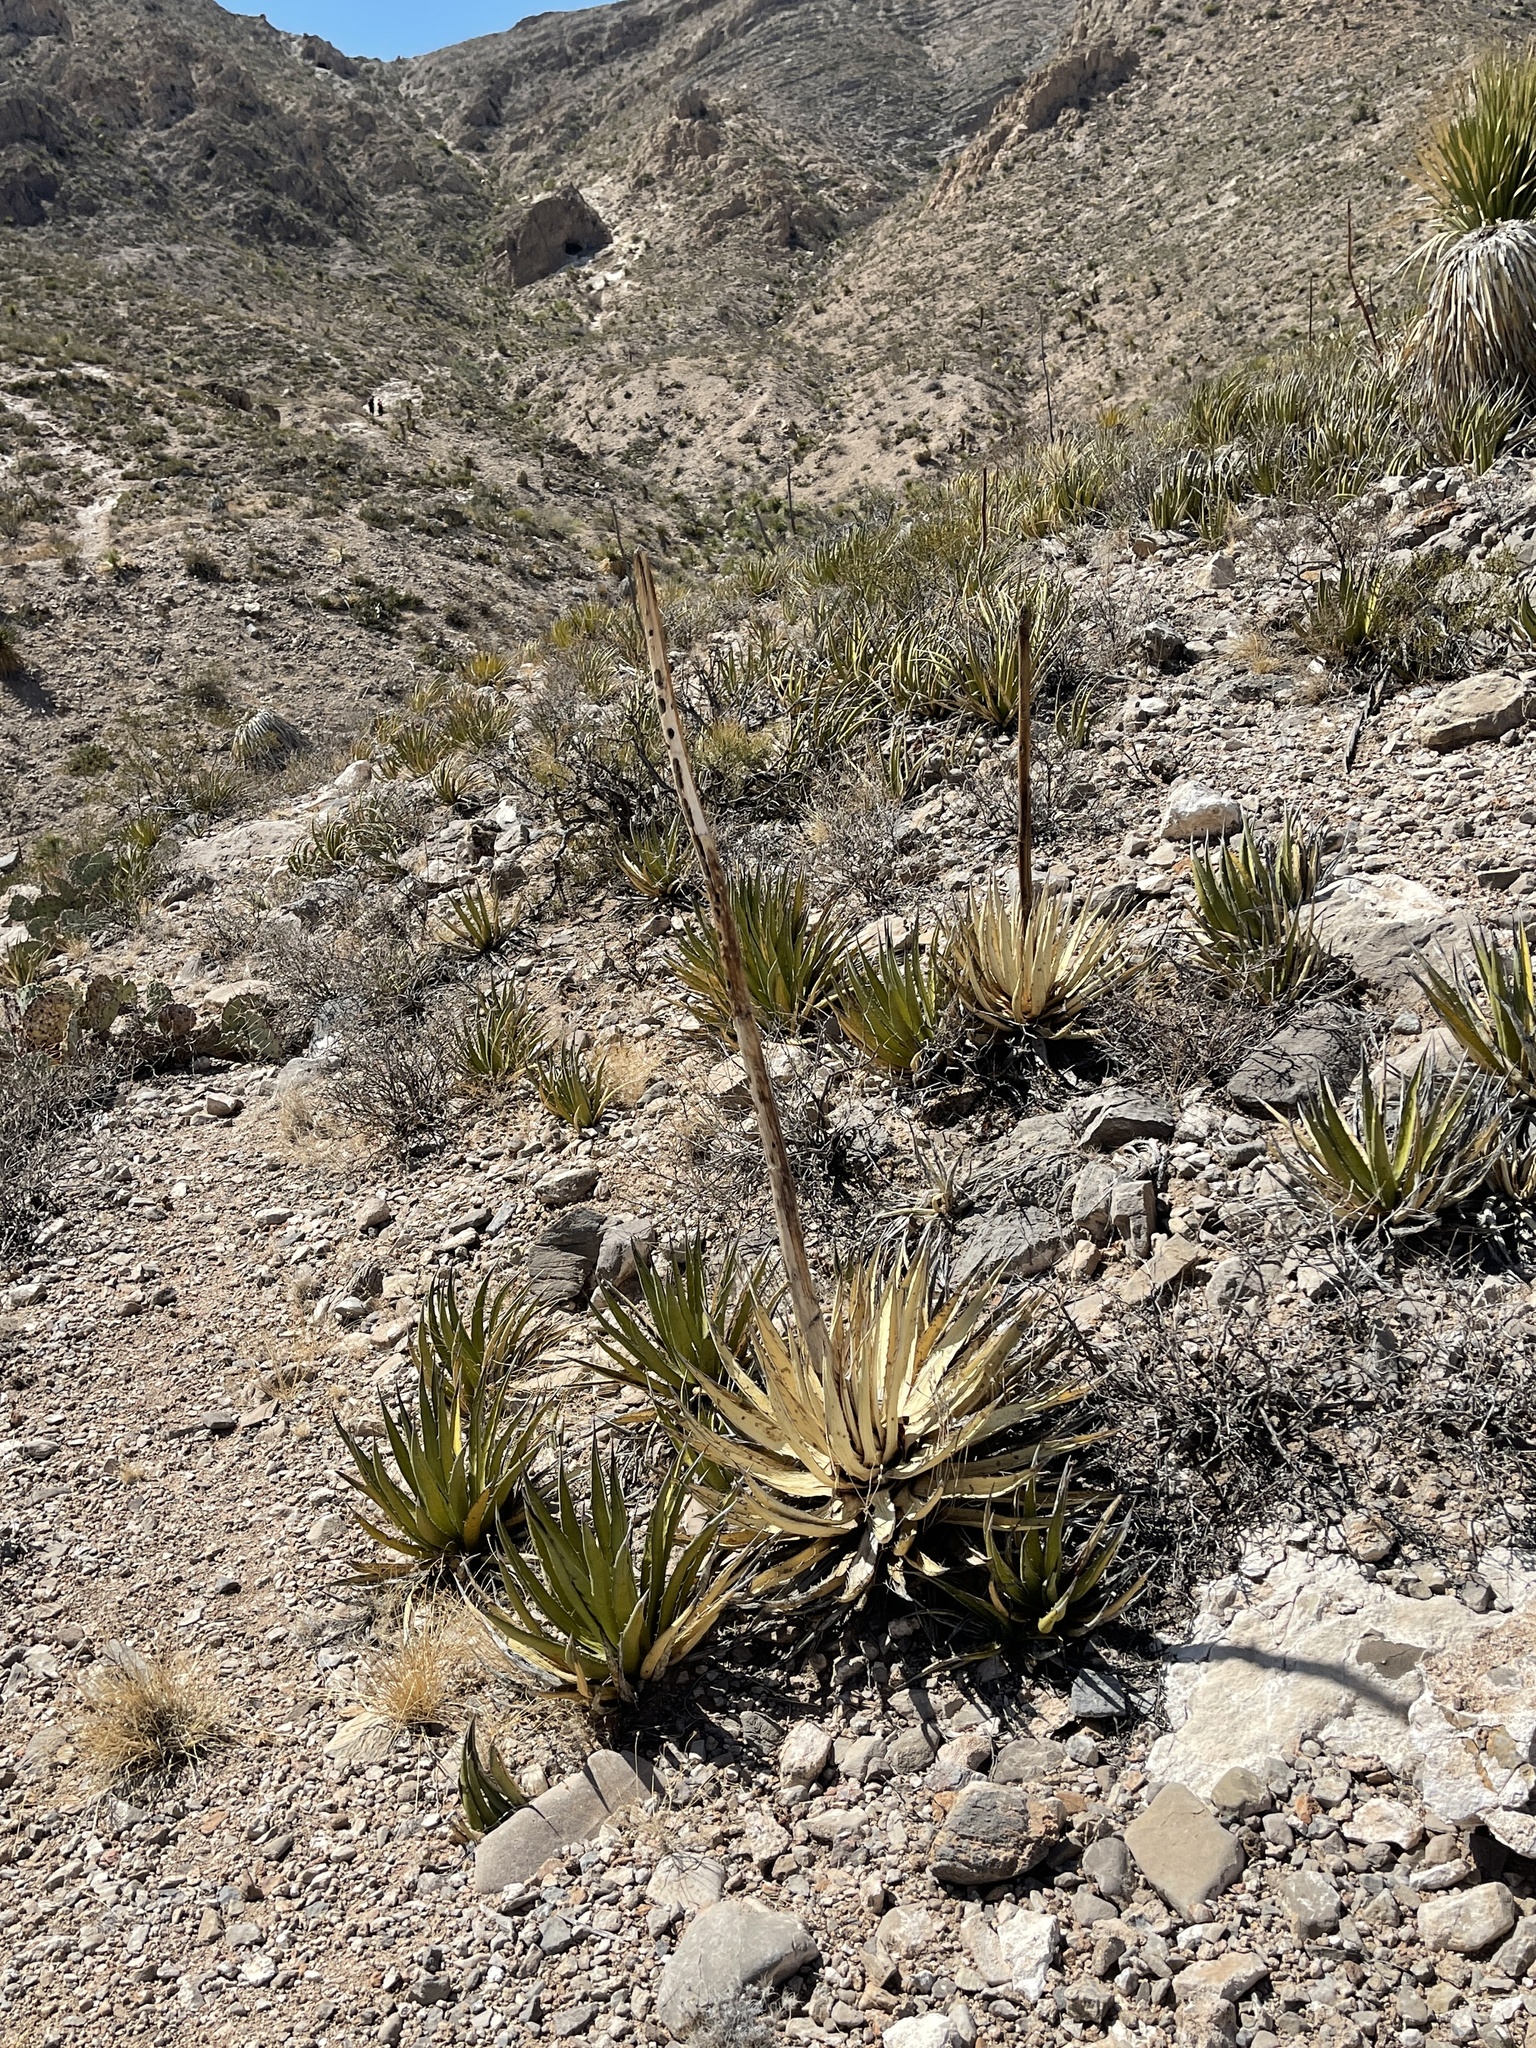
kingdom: Plantae
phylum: Tracheophyta
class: Liliopsida
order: Asparagales
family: Asparagaceae
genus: Agave
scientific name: Agave lechuguilla
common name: Lecheguilla agave
